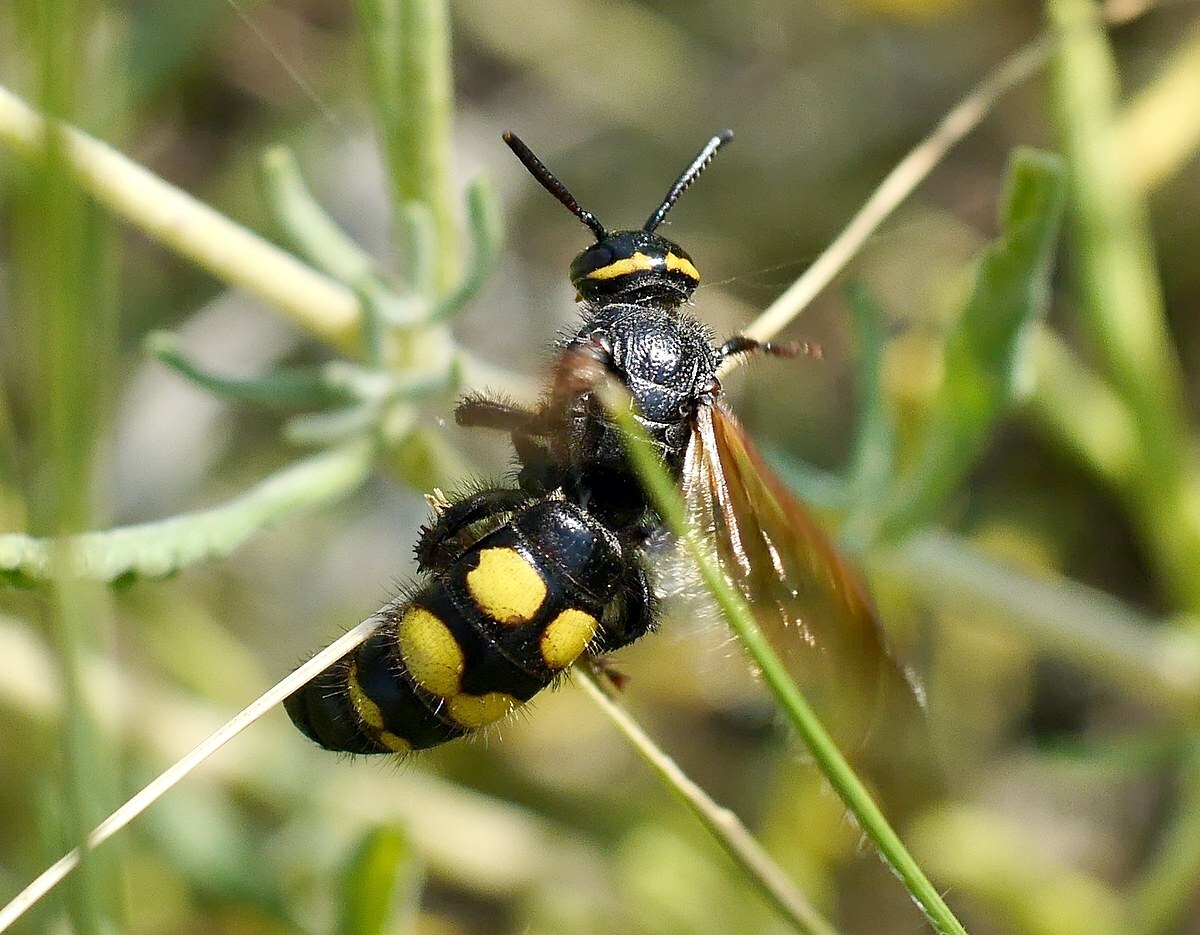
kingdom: Animalia
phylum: Arthropoda
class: Insecta
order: Hymenoptera
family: Scoliidae
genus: Scolia
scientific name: Scolia fuciformis
